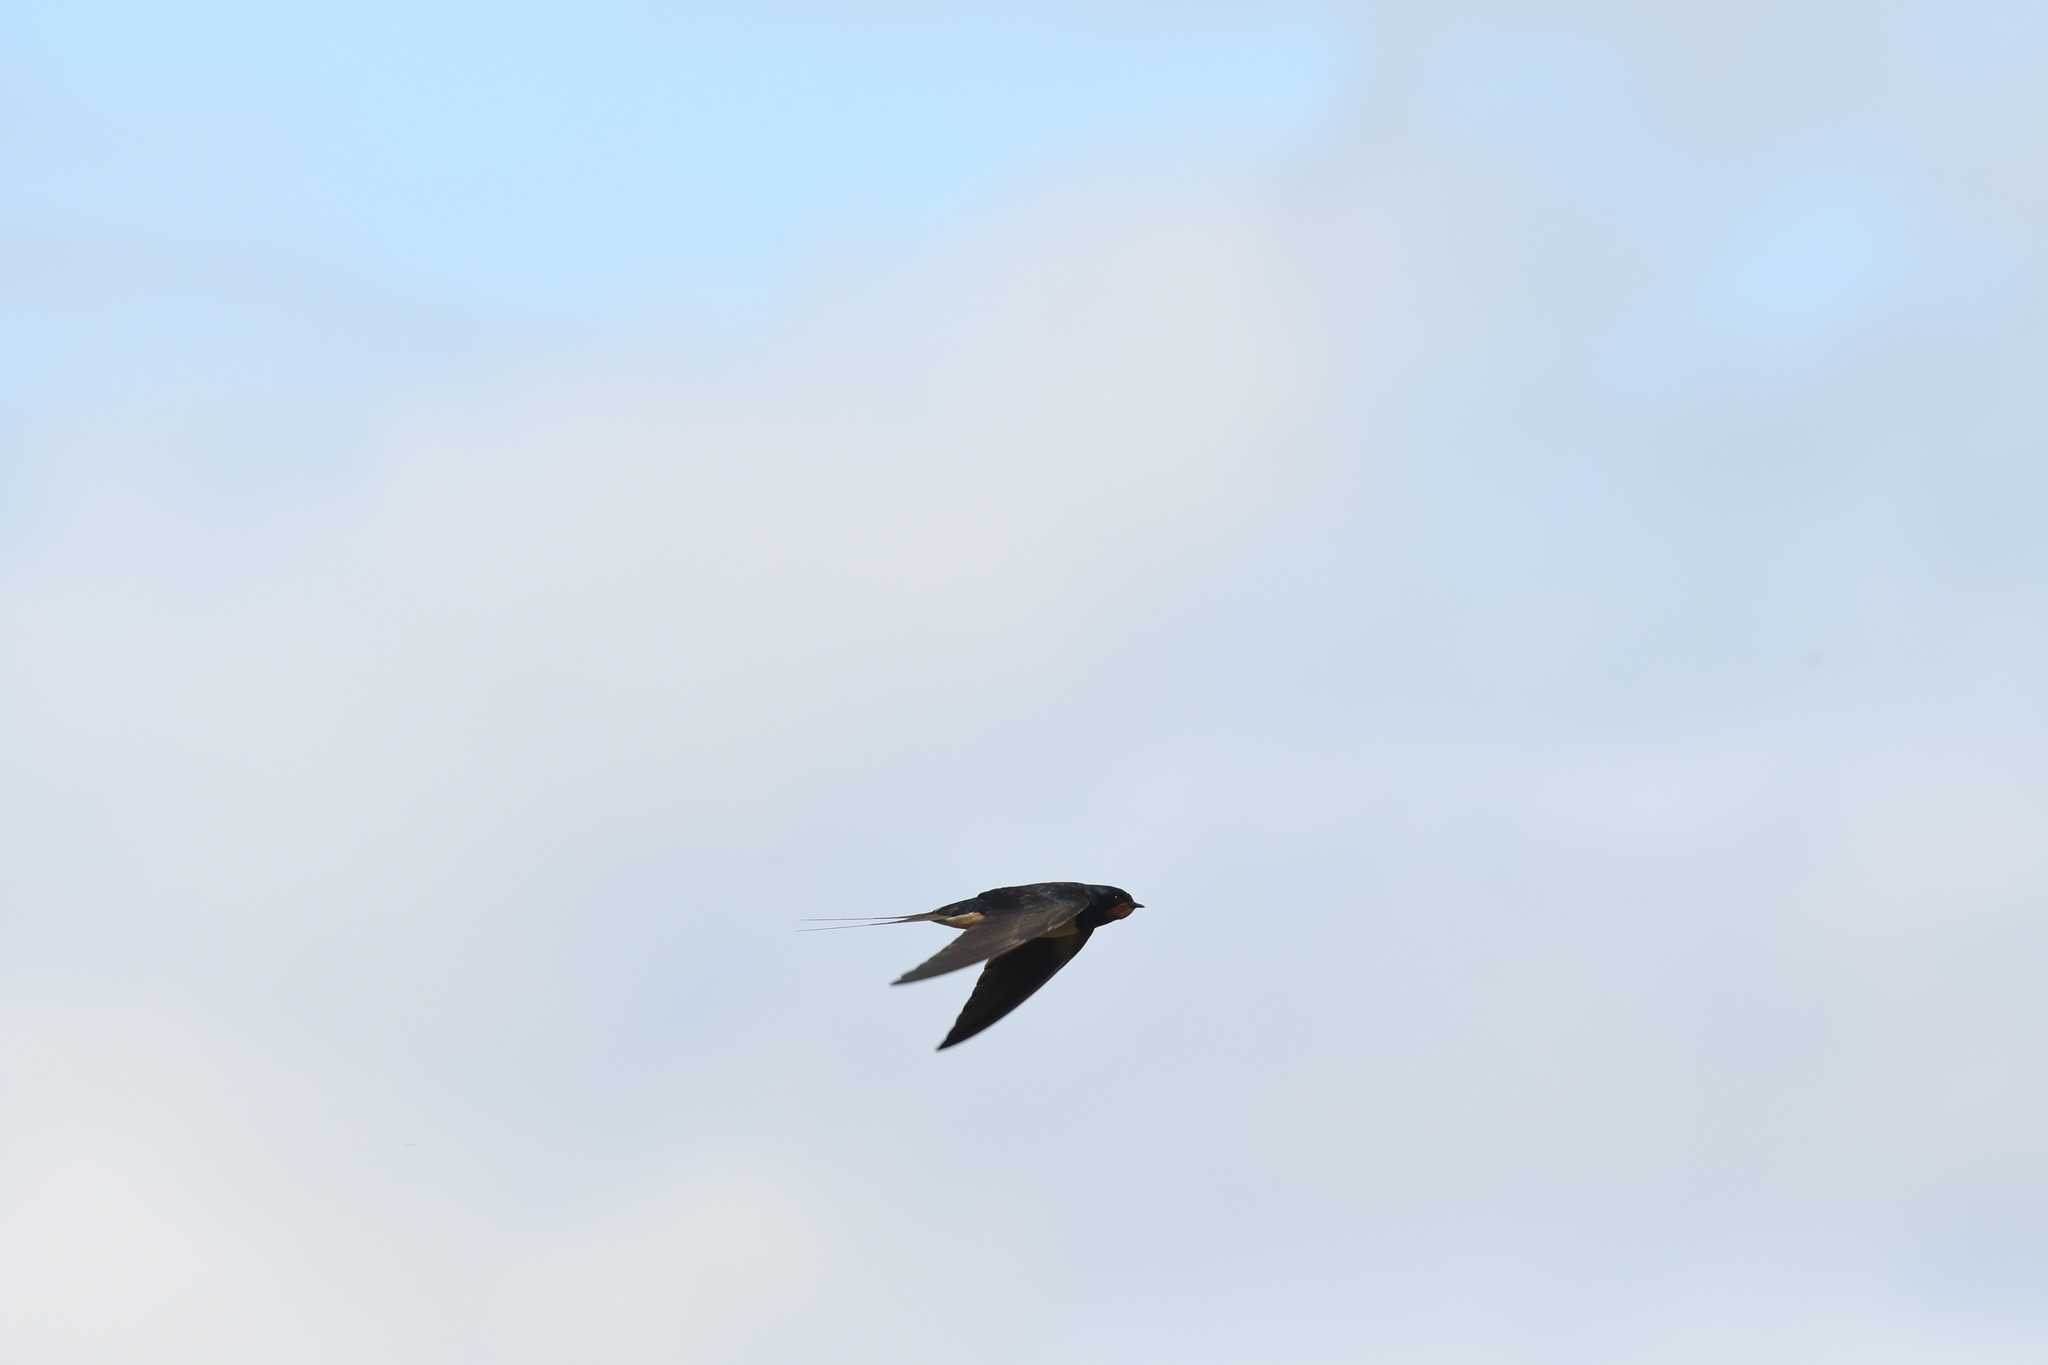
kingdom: Animalia
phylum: Chordata
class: Aves
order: Passeriformes
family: Hirundinidae
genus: Hirundo
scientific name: Hirundo rustica
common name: Barn swallow
